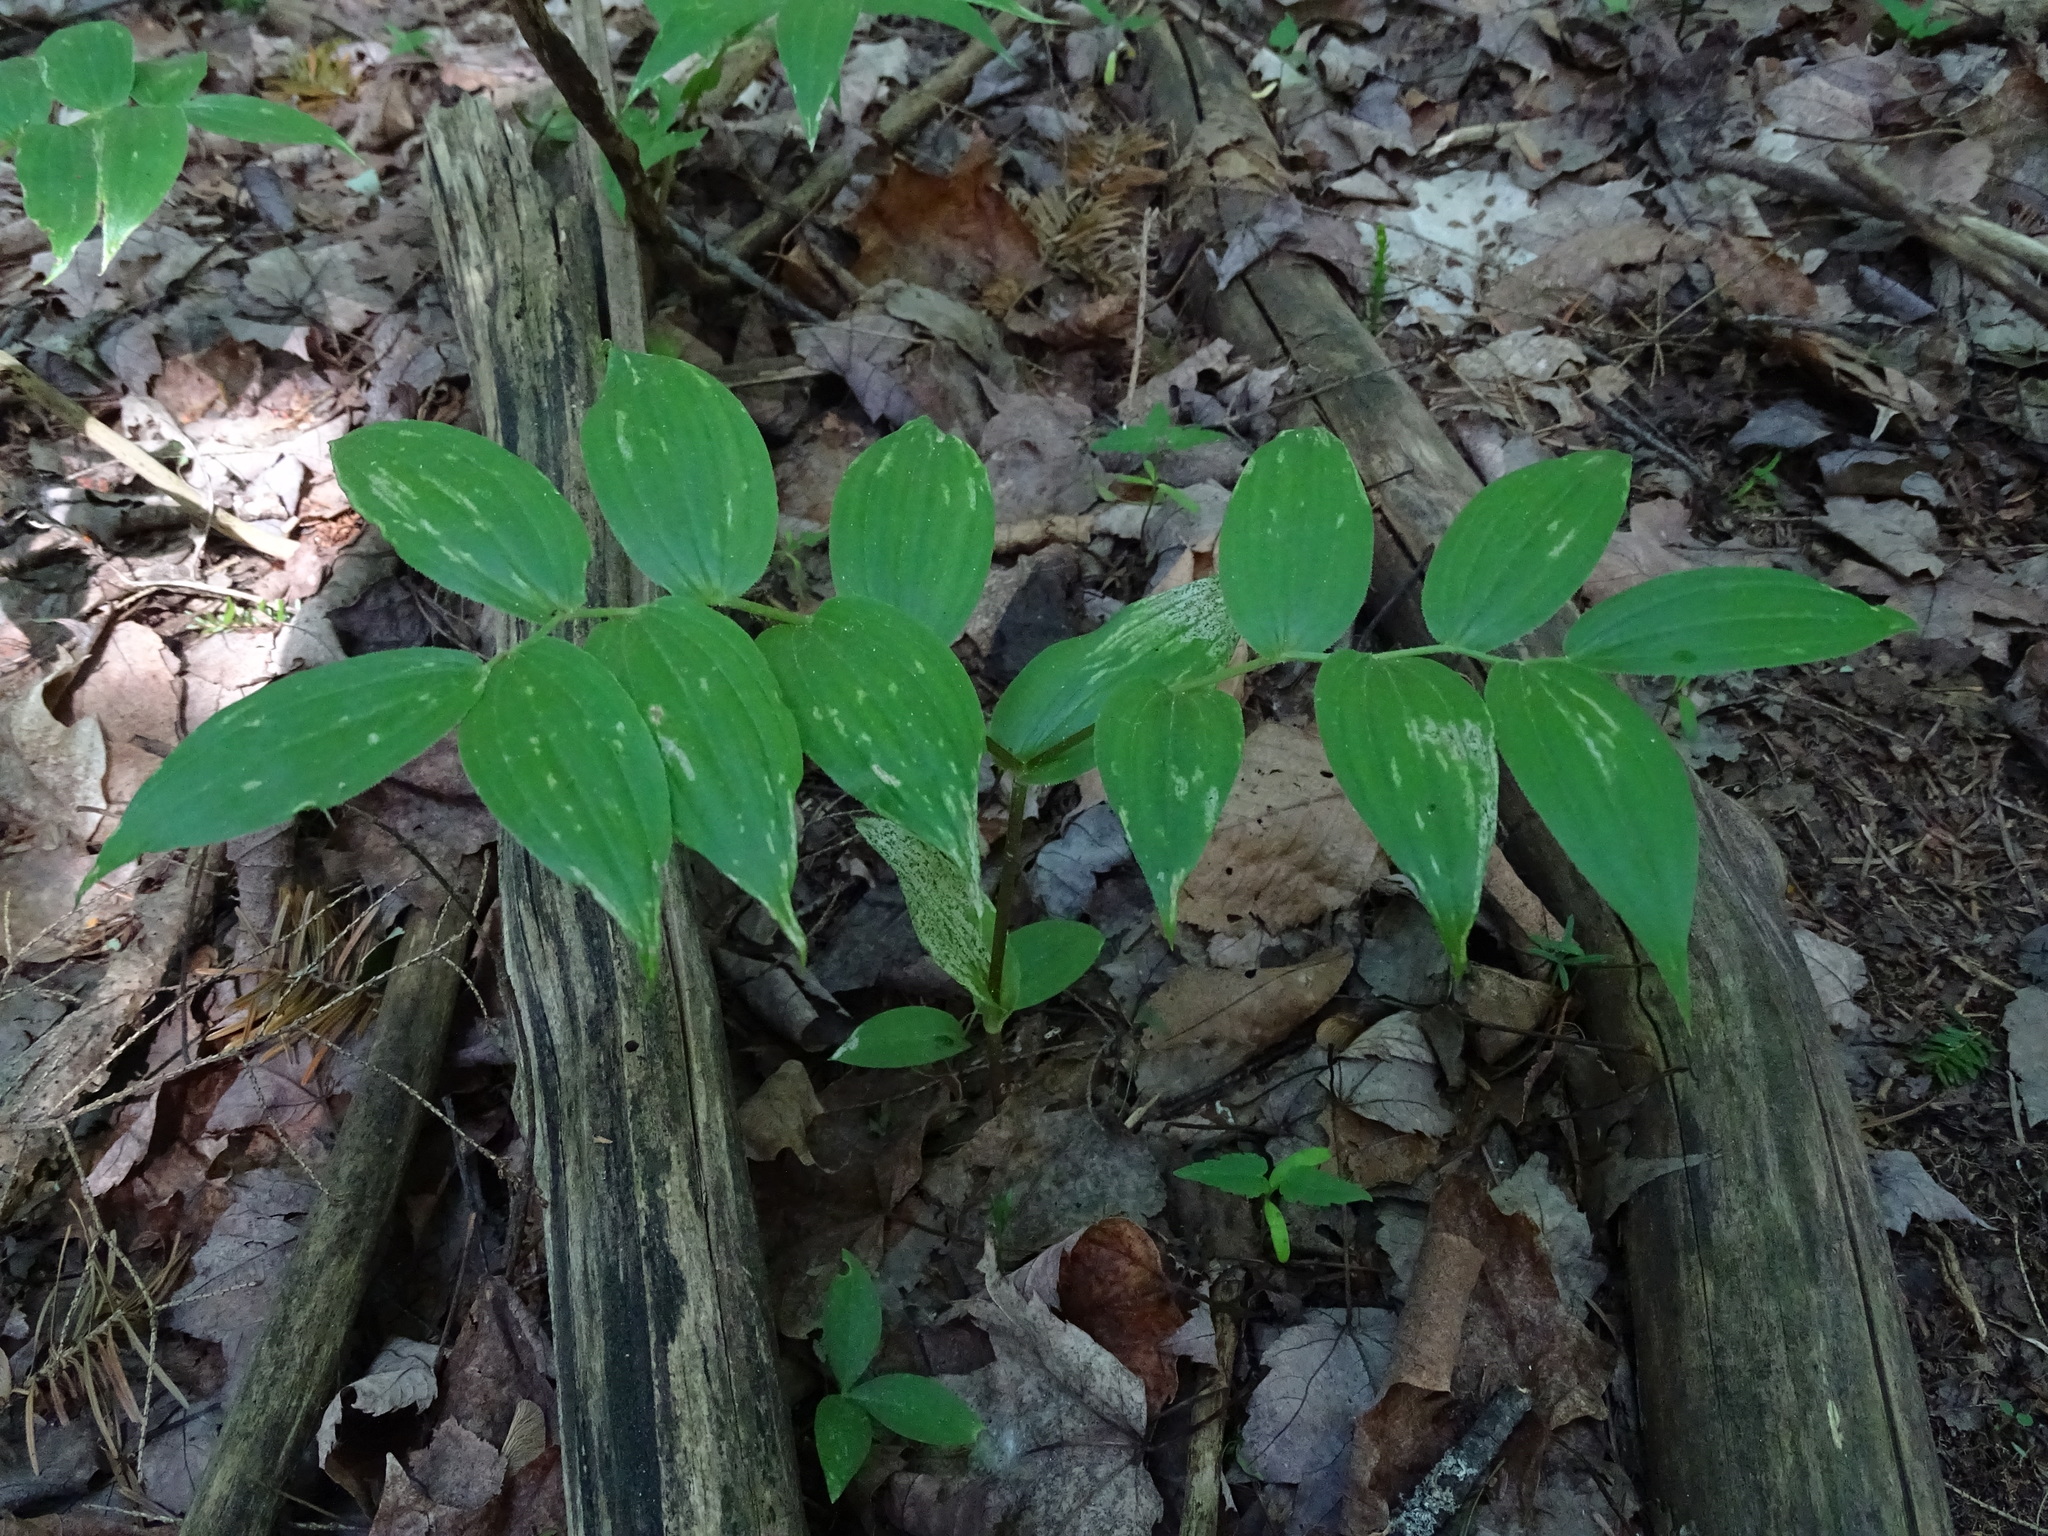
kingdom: Plantae
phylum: Tracheophyta
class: Liliopsida
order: Liliales
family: Liliaceae
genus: Streptopus
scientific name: Streptopus lanceolatus
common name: Rose mandarin
